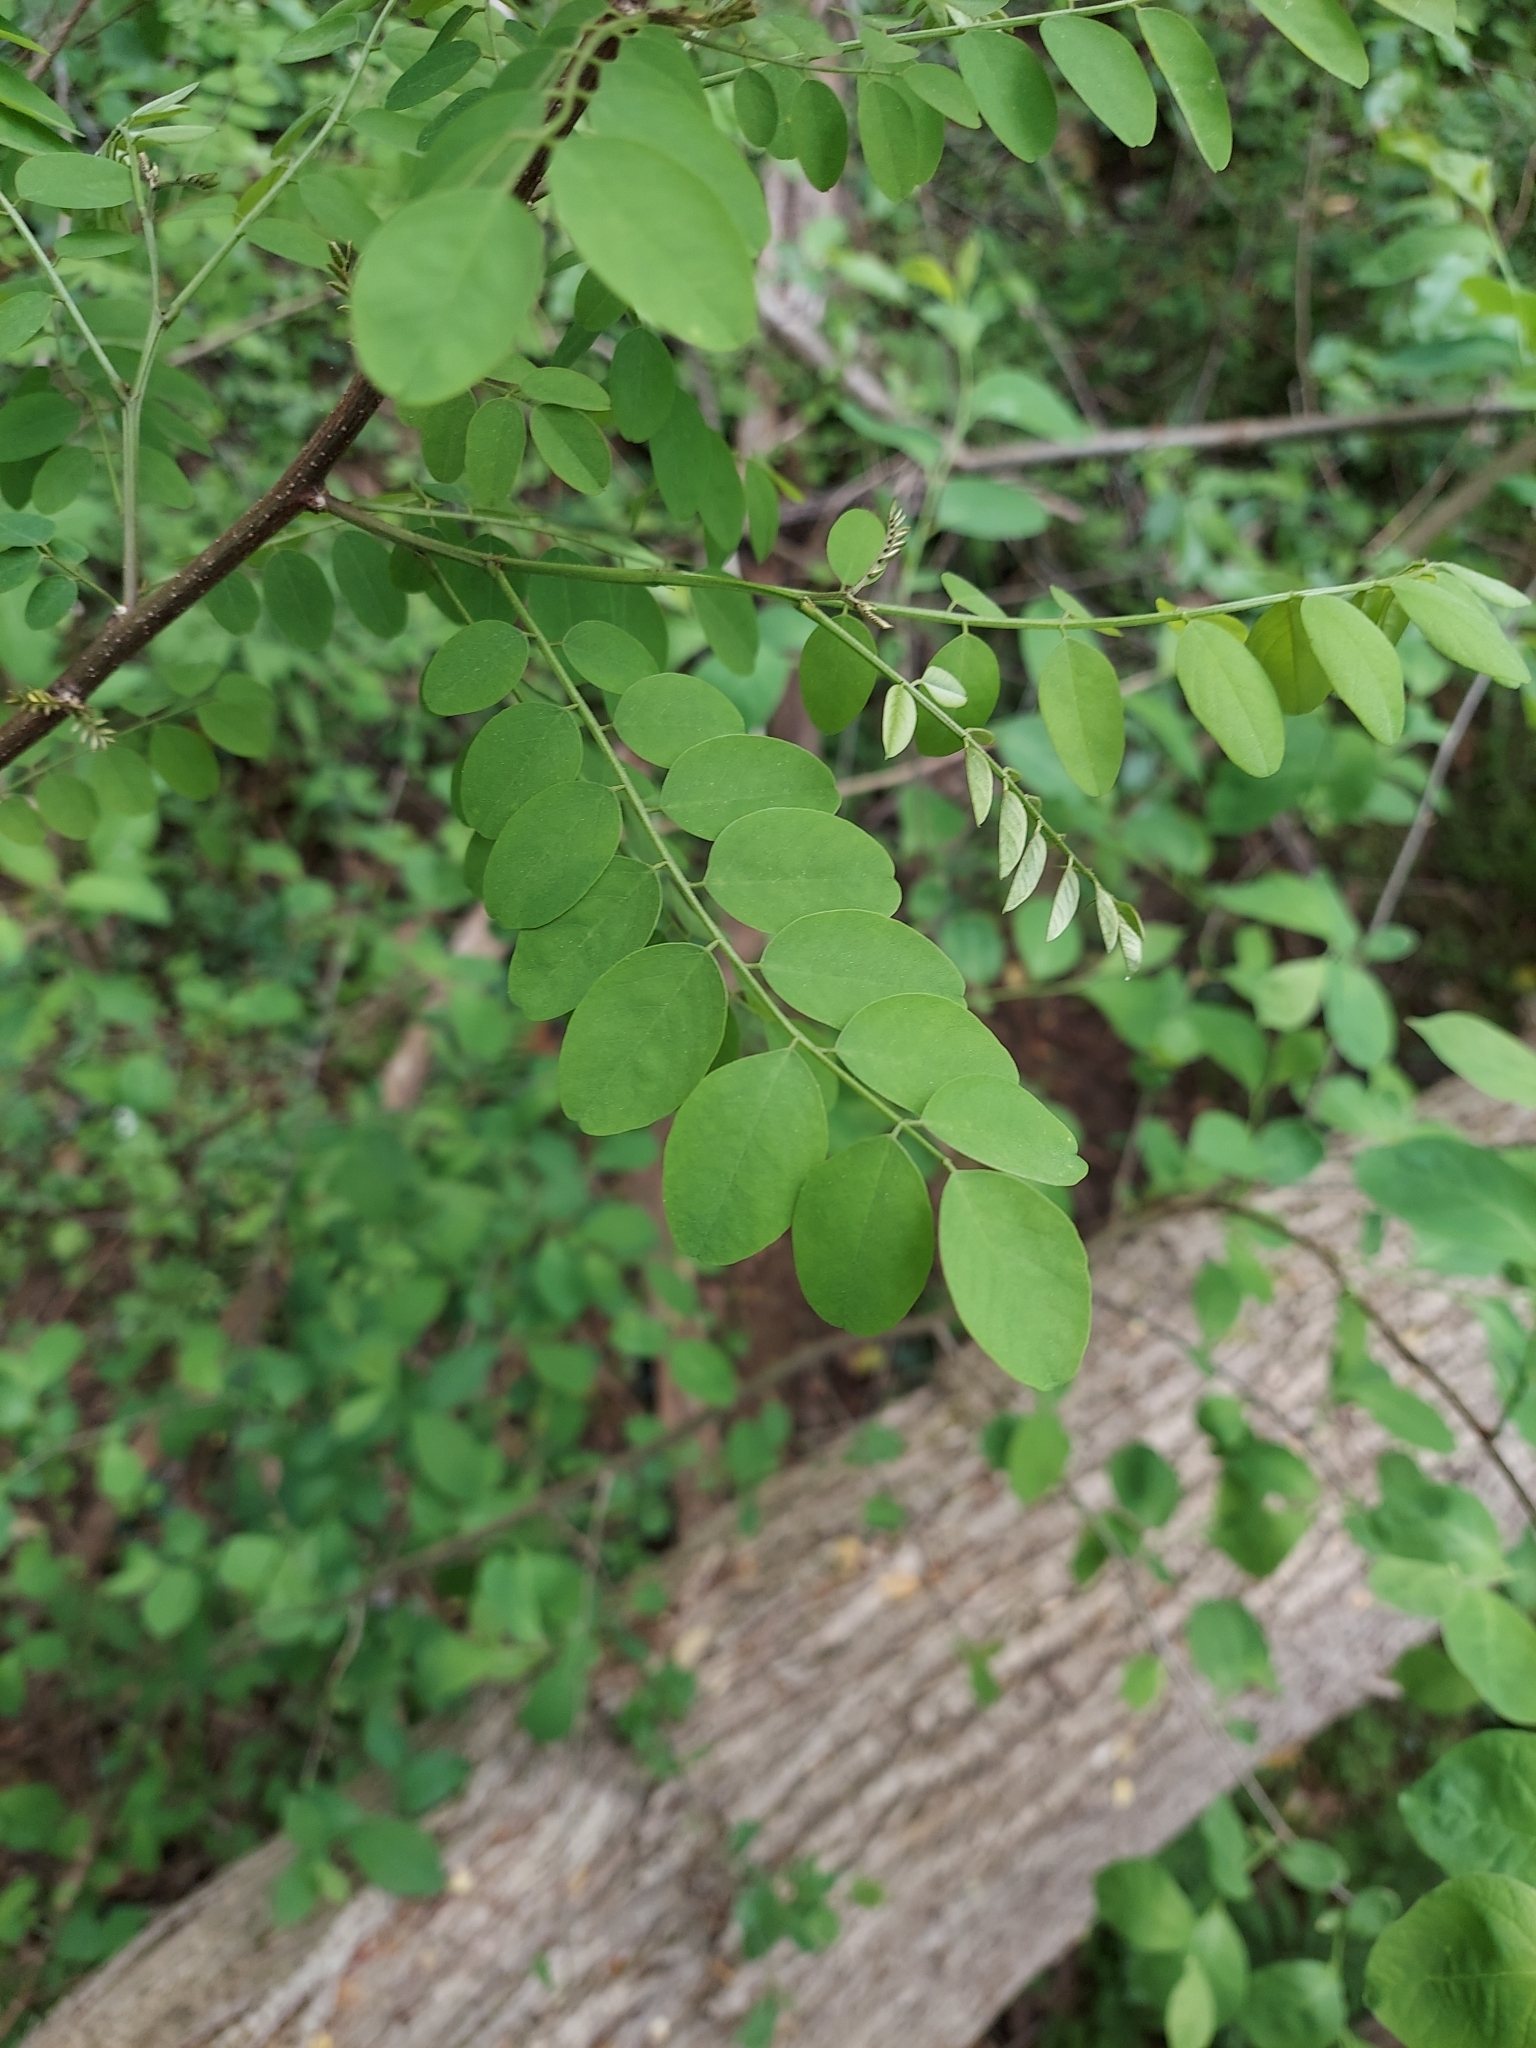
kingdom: Plantae
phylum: Tracheophyta
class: Magnoliopsida
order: Fabales
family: Fabaceae
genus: Robinia
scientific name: Robinia pseudoacacia
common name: Black locust
